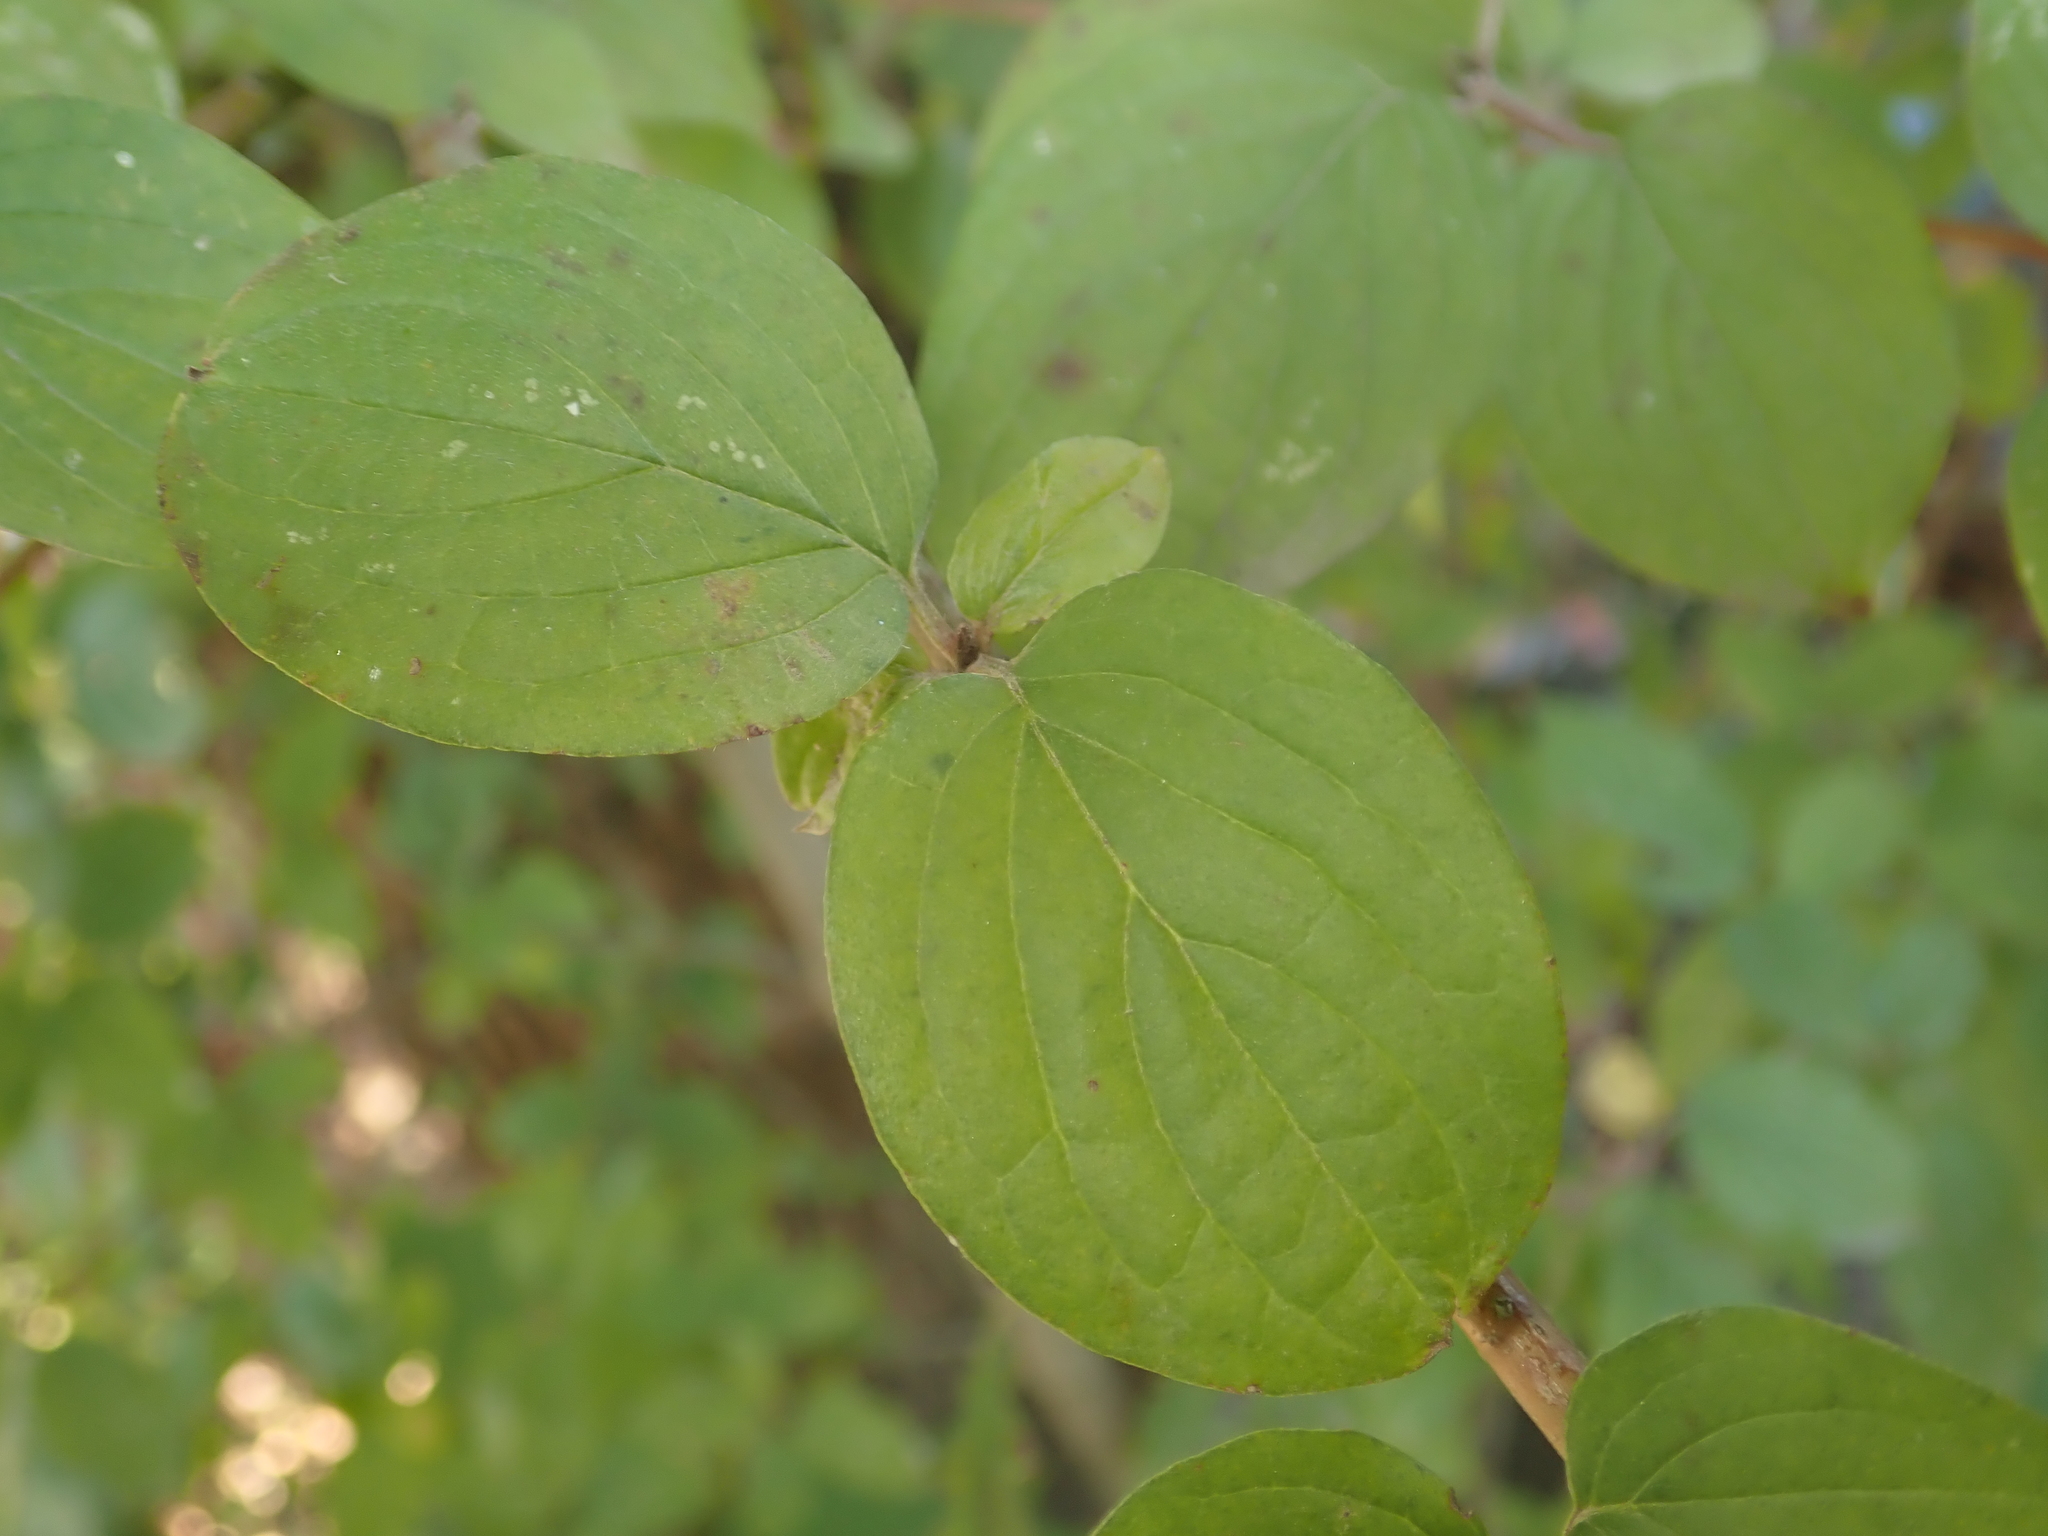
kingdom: Plantae
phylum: Tracheophyta
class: Magnoliopsida
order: Cornales
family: Cornaceae
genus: Cornus
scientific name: Cornus sanguinea
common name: Dogwood
